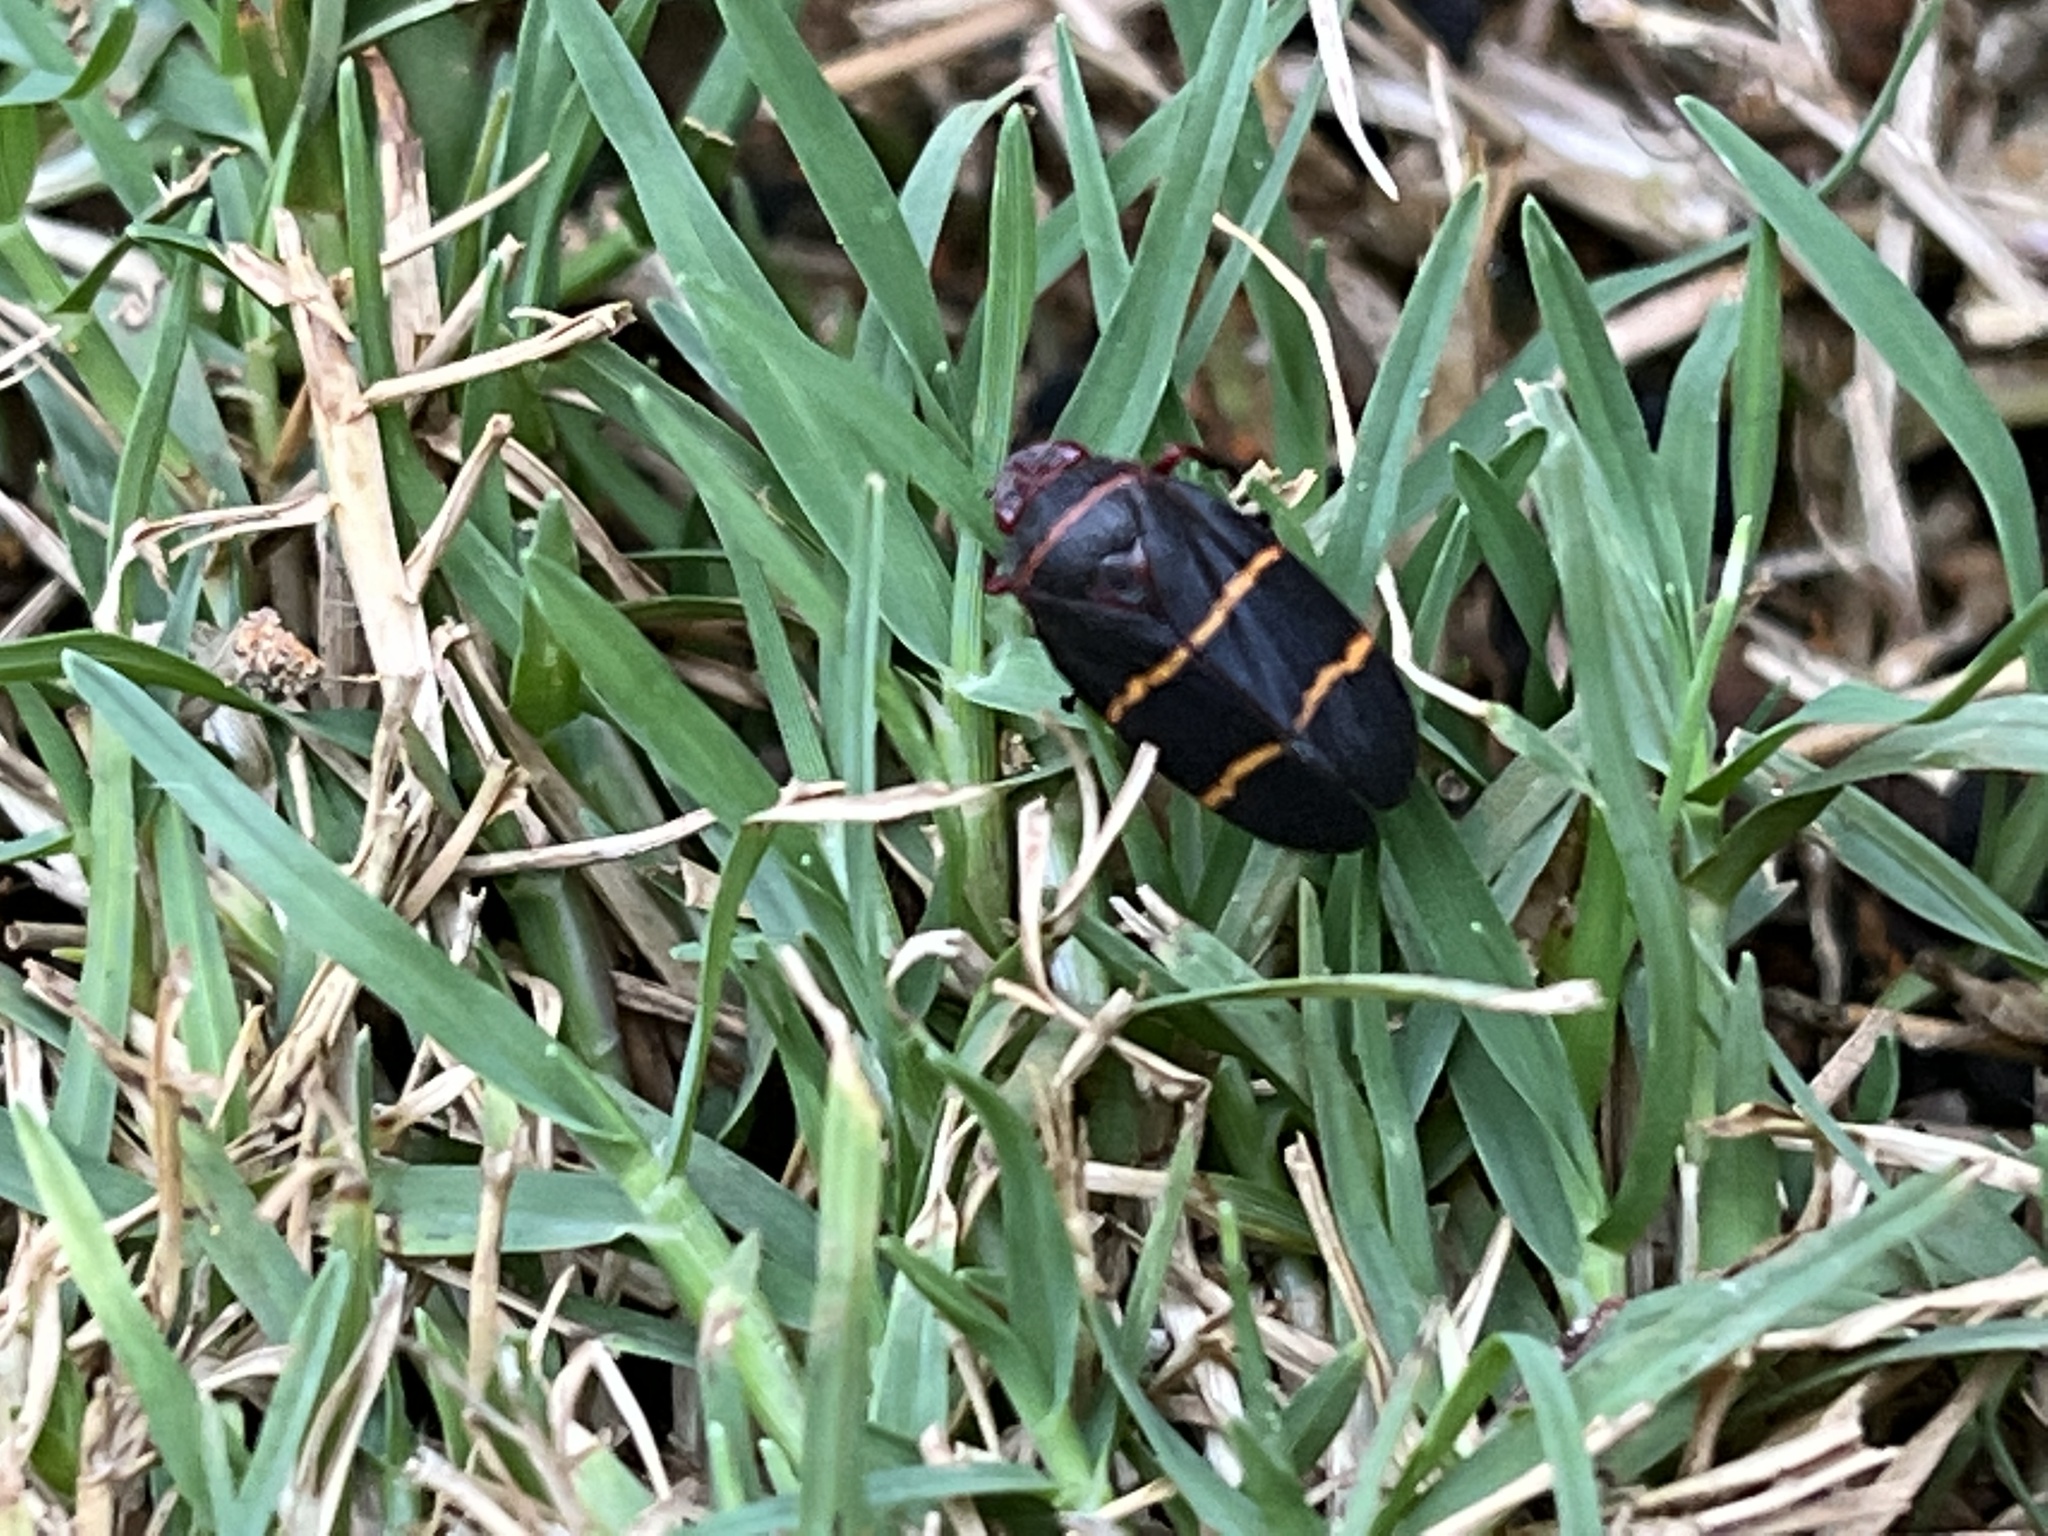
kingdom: Animalia
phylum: Arthropoda
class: Insecta
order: Hemiptera
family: Cercopidae
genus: Prosapia
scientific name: Prosapia bicincta
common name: Twolined spittlebug
